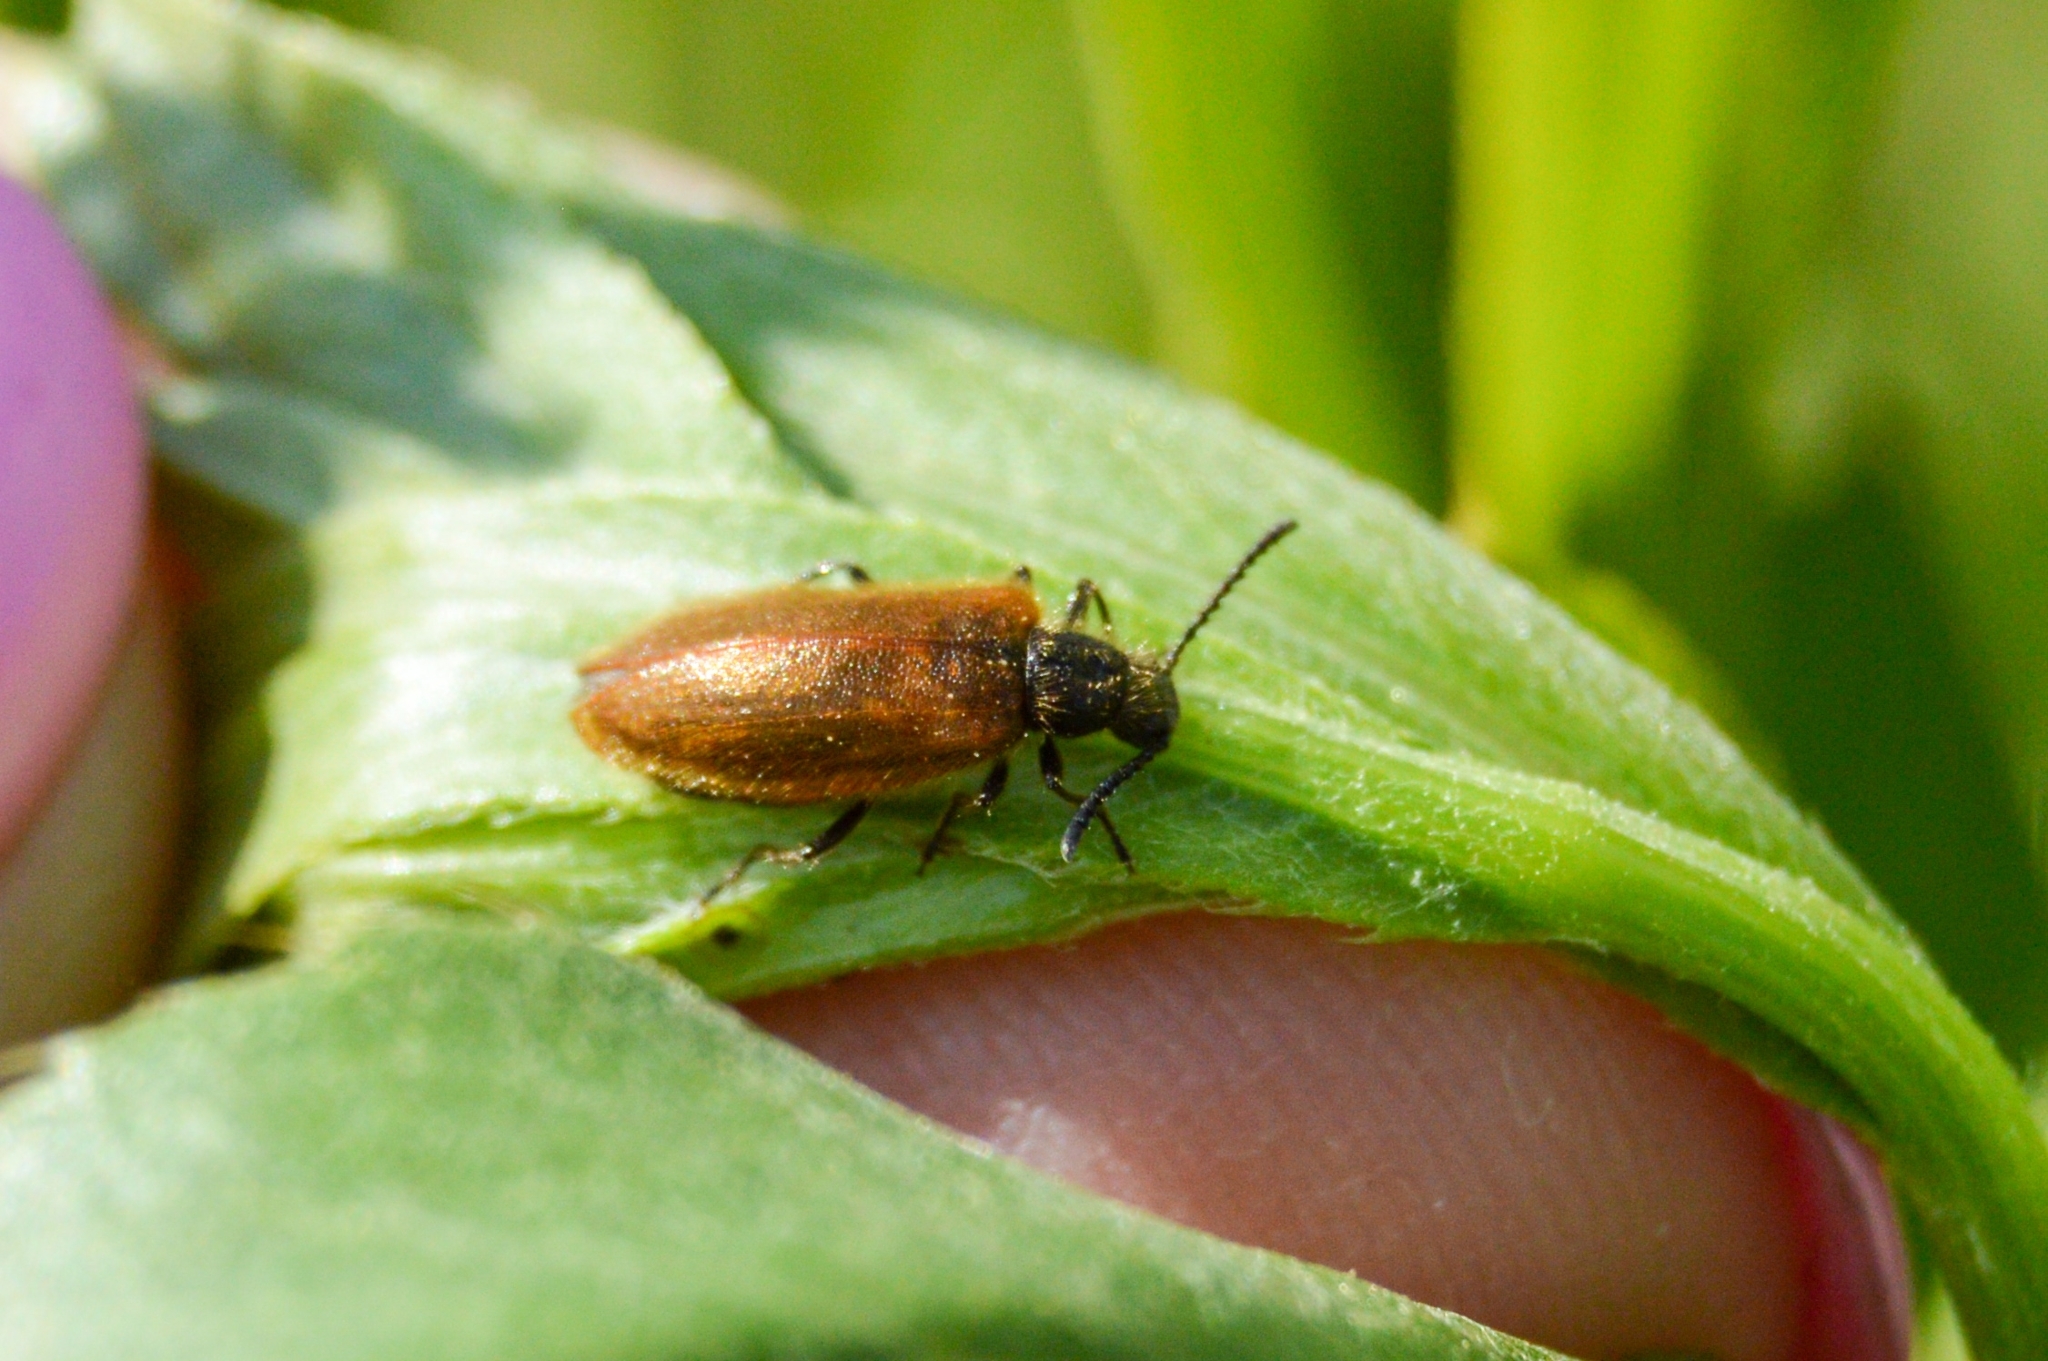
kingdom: Animalia
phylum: Arthropoda
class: Insecta
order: Coleoptera
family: Tenebrionidae
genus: Lagria
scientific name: Lagria hirta
